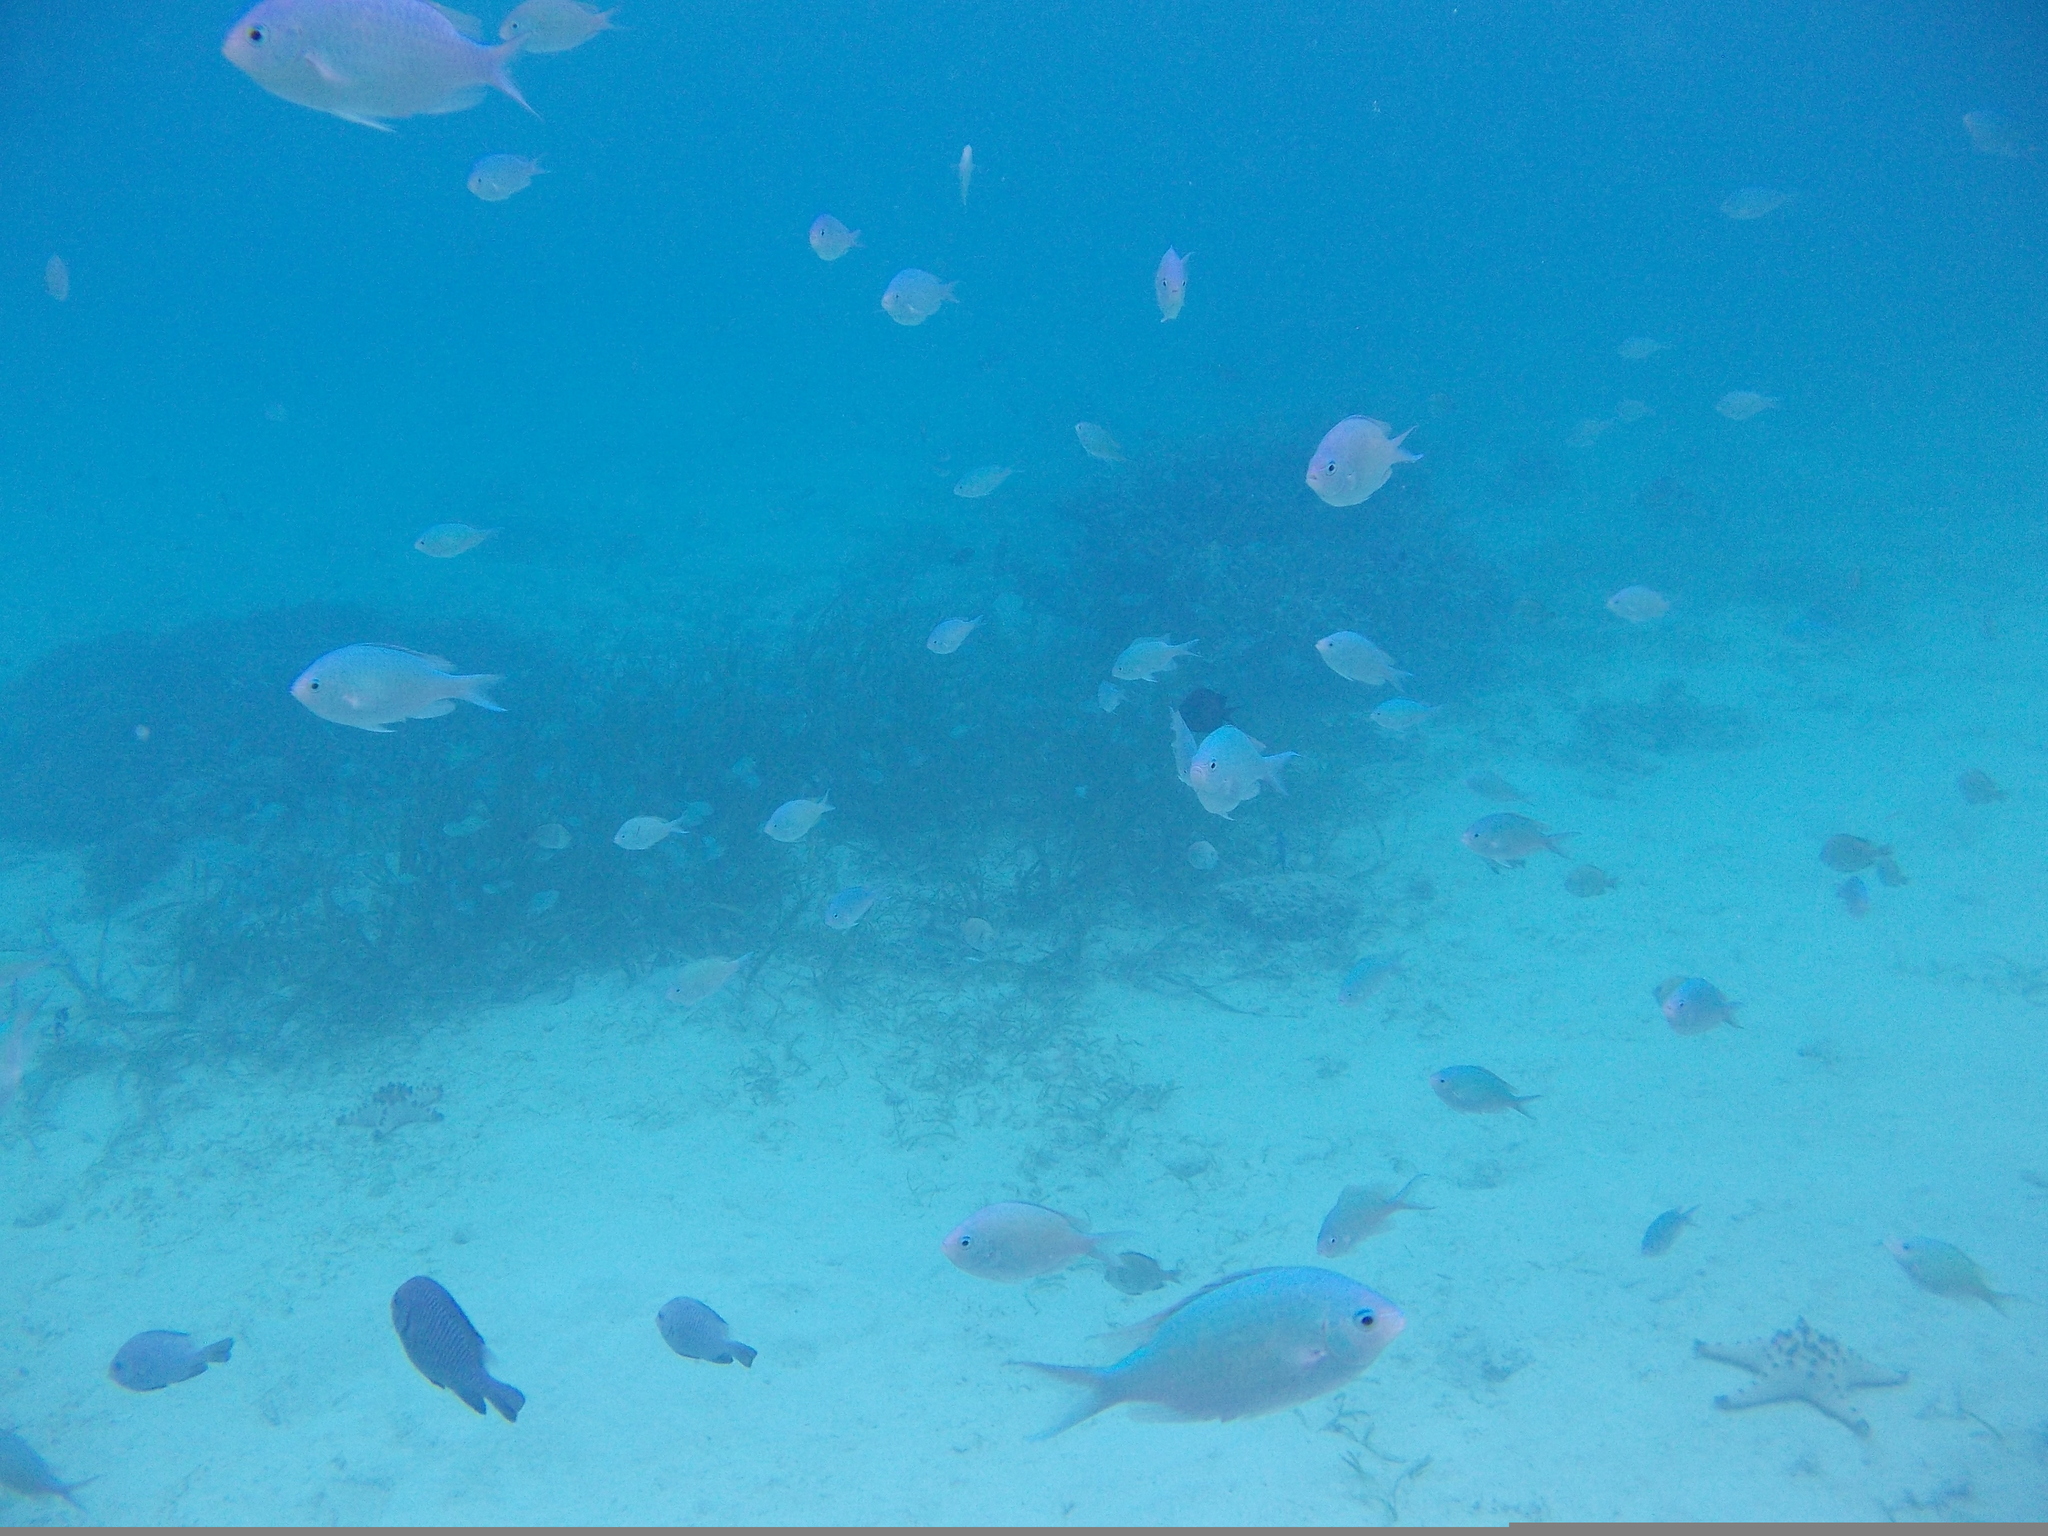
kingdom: Animalia
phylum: Chordata
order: Perciformes
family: Pomacentridae
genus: Chromis
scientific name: Chromis viridis
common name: Blue-green chromis
